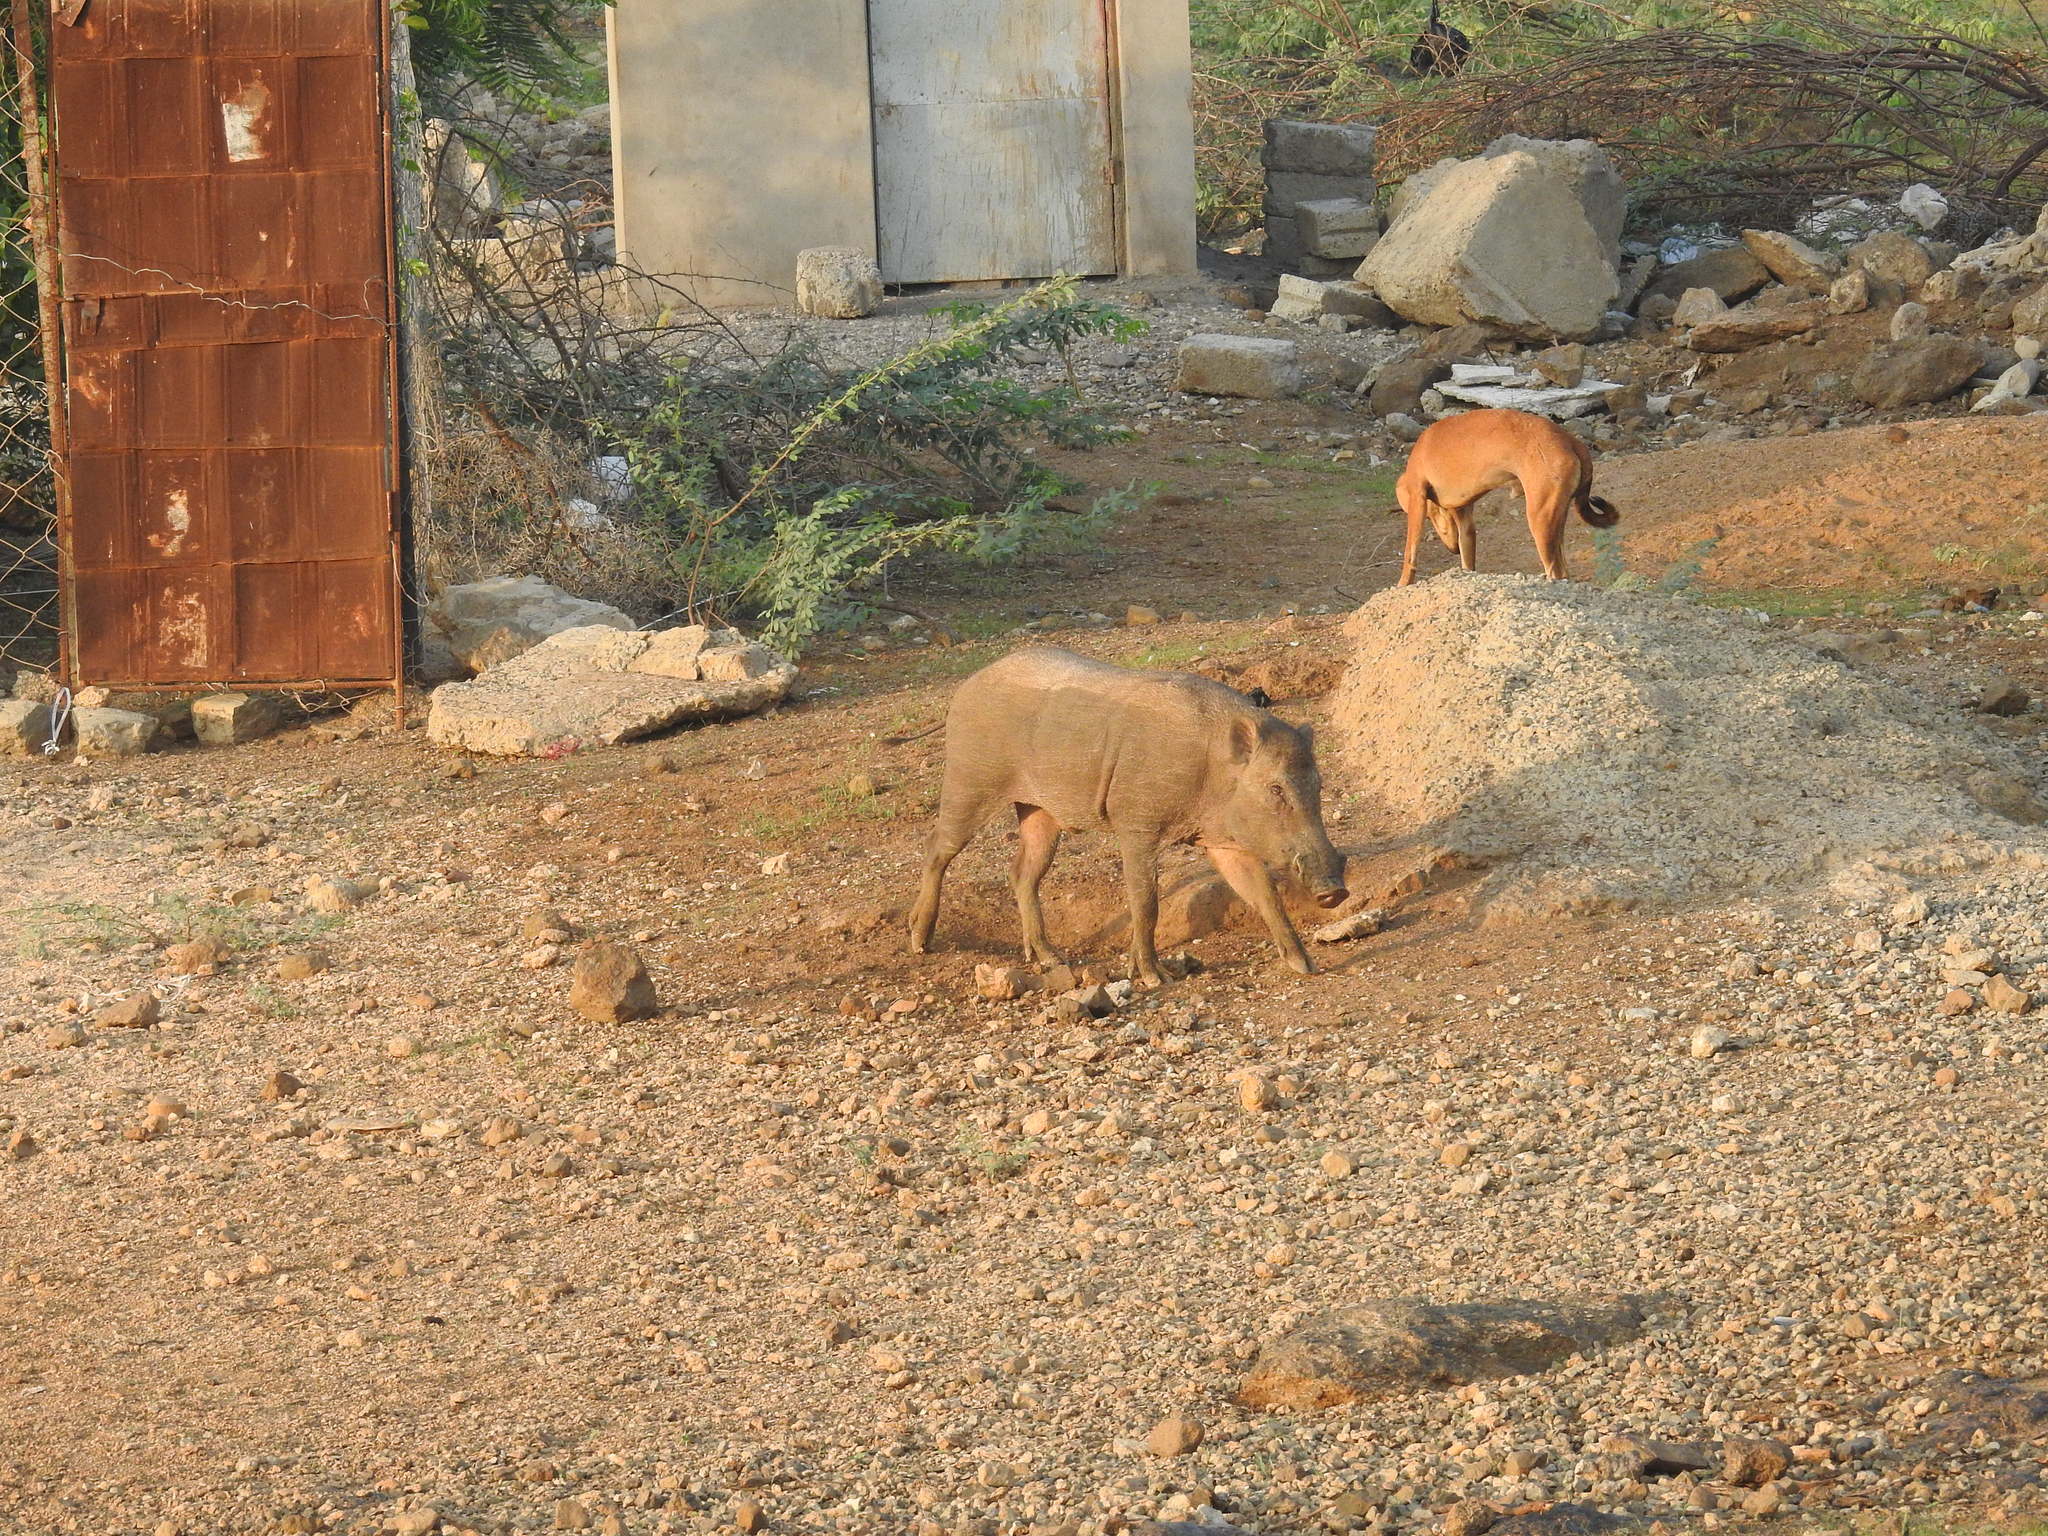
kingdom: Animalia
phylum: Chordata
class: Mammalia
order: Artiodactyla
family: Suidae
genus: Sus
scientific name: Sus scrofa
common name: Wild boar
